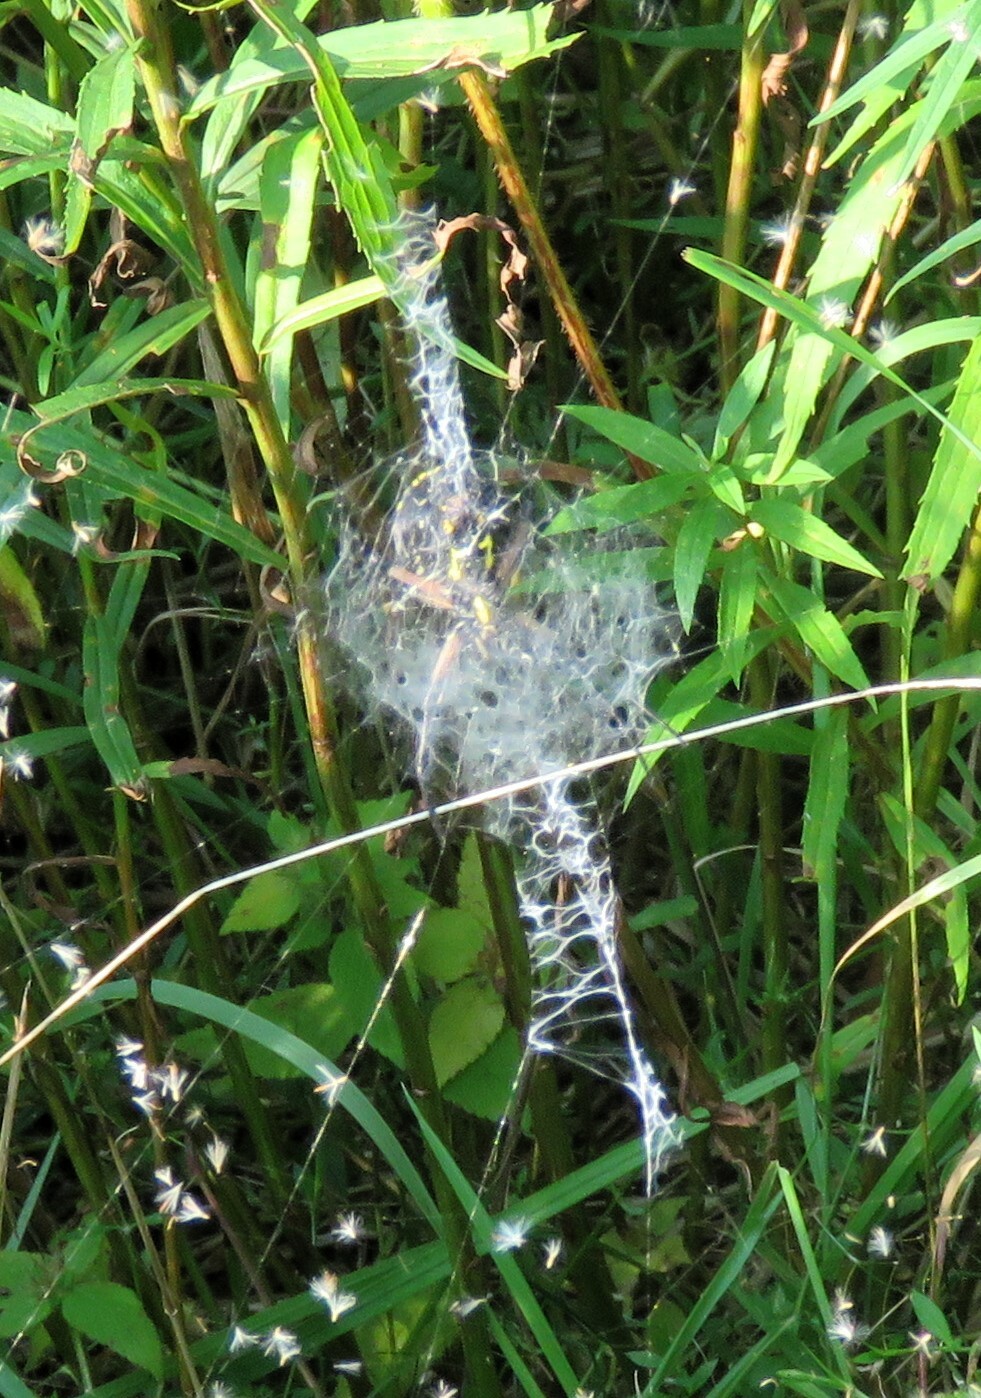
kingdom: Animalia
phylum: Arthropoda
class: Arachnida
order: Araneae
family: Araneidae
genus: Argiope
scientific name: Argiope aurantia
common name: Orb weavers
